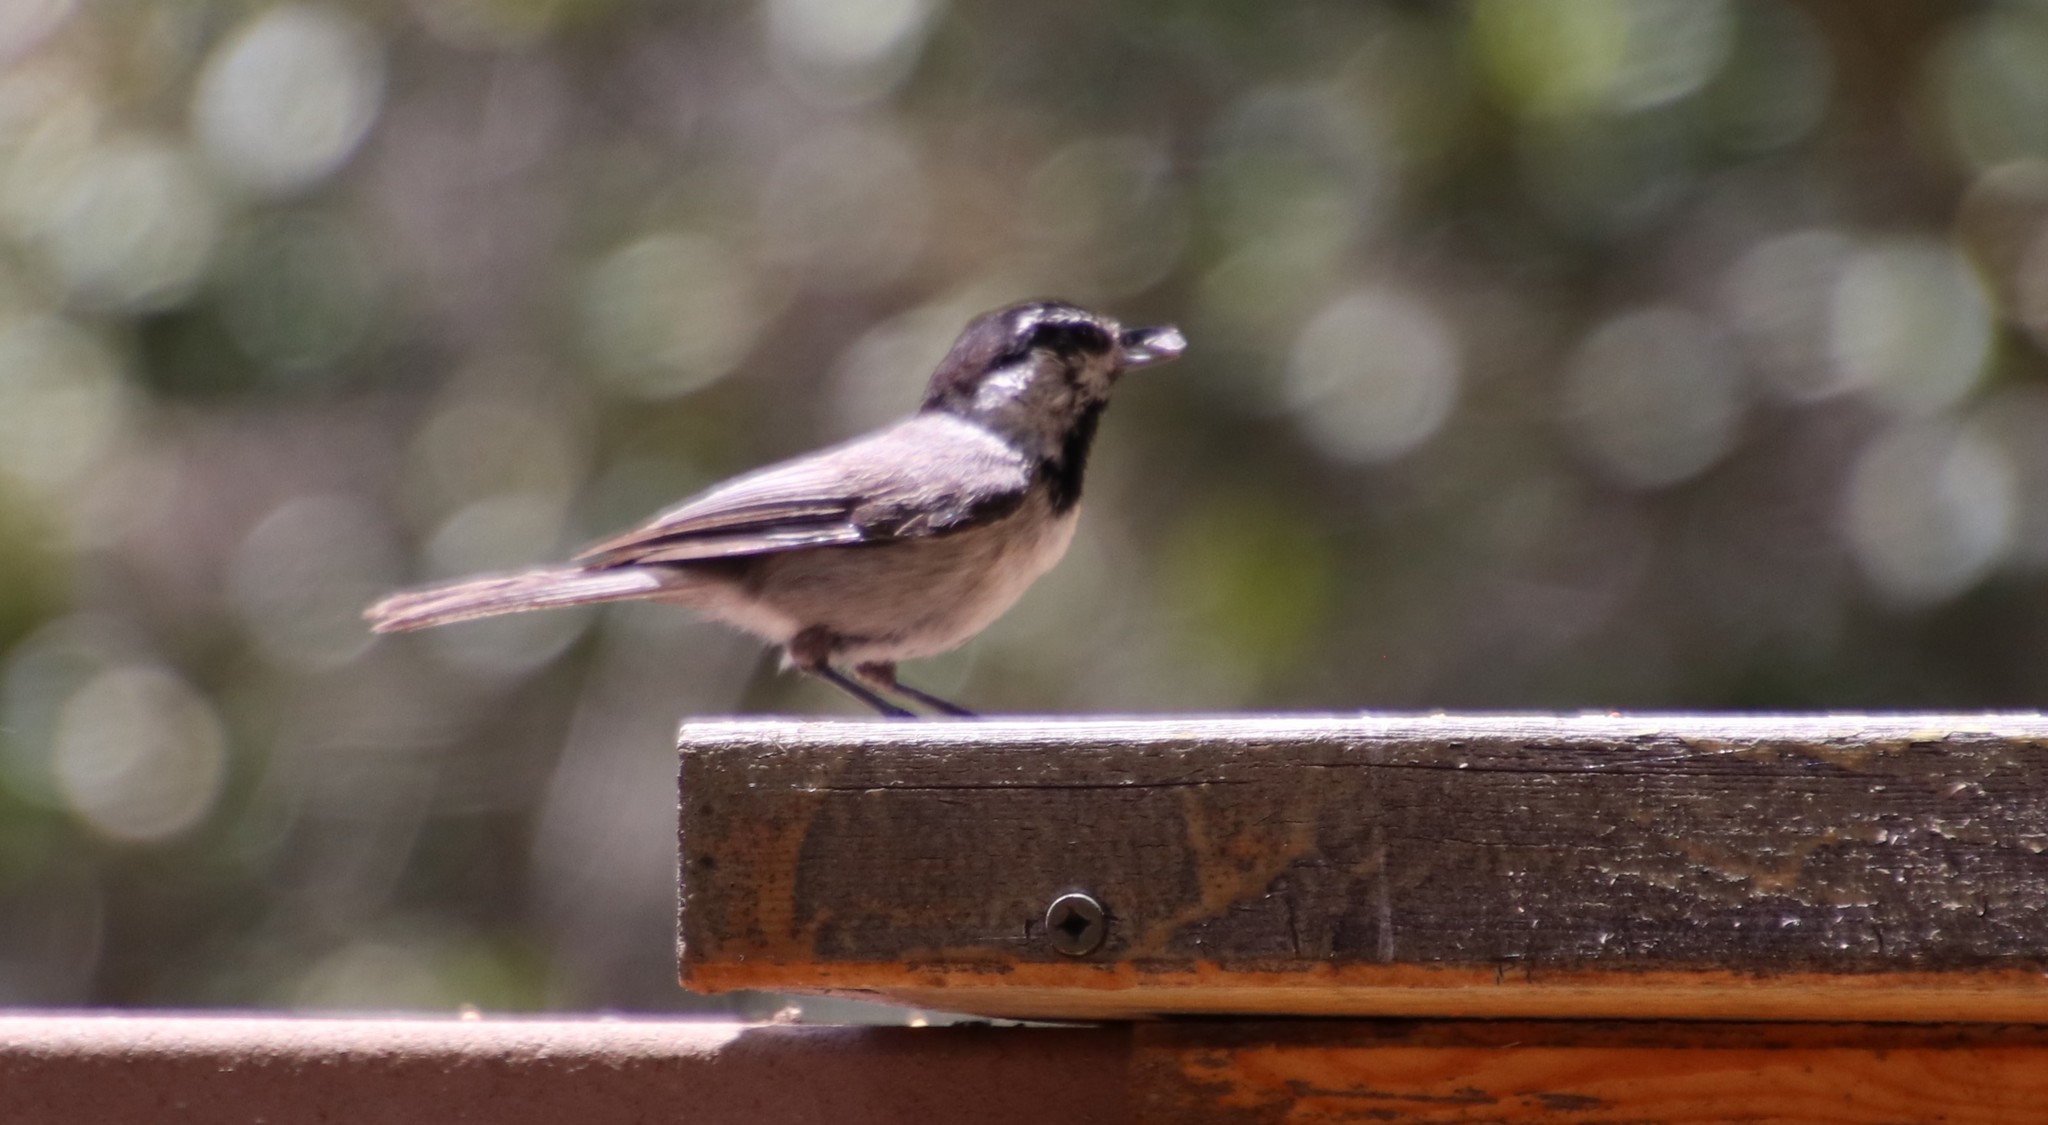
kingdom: Animalia
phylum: Chordata
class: Aves
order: Passeriformes
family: Paridae
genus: Poecile
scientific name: Poecile gambeli
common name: Mountain chickadee
